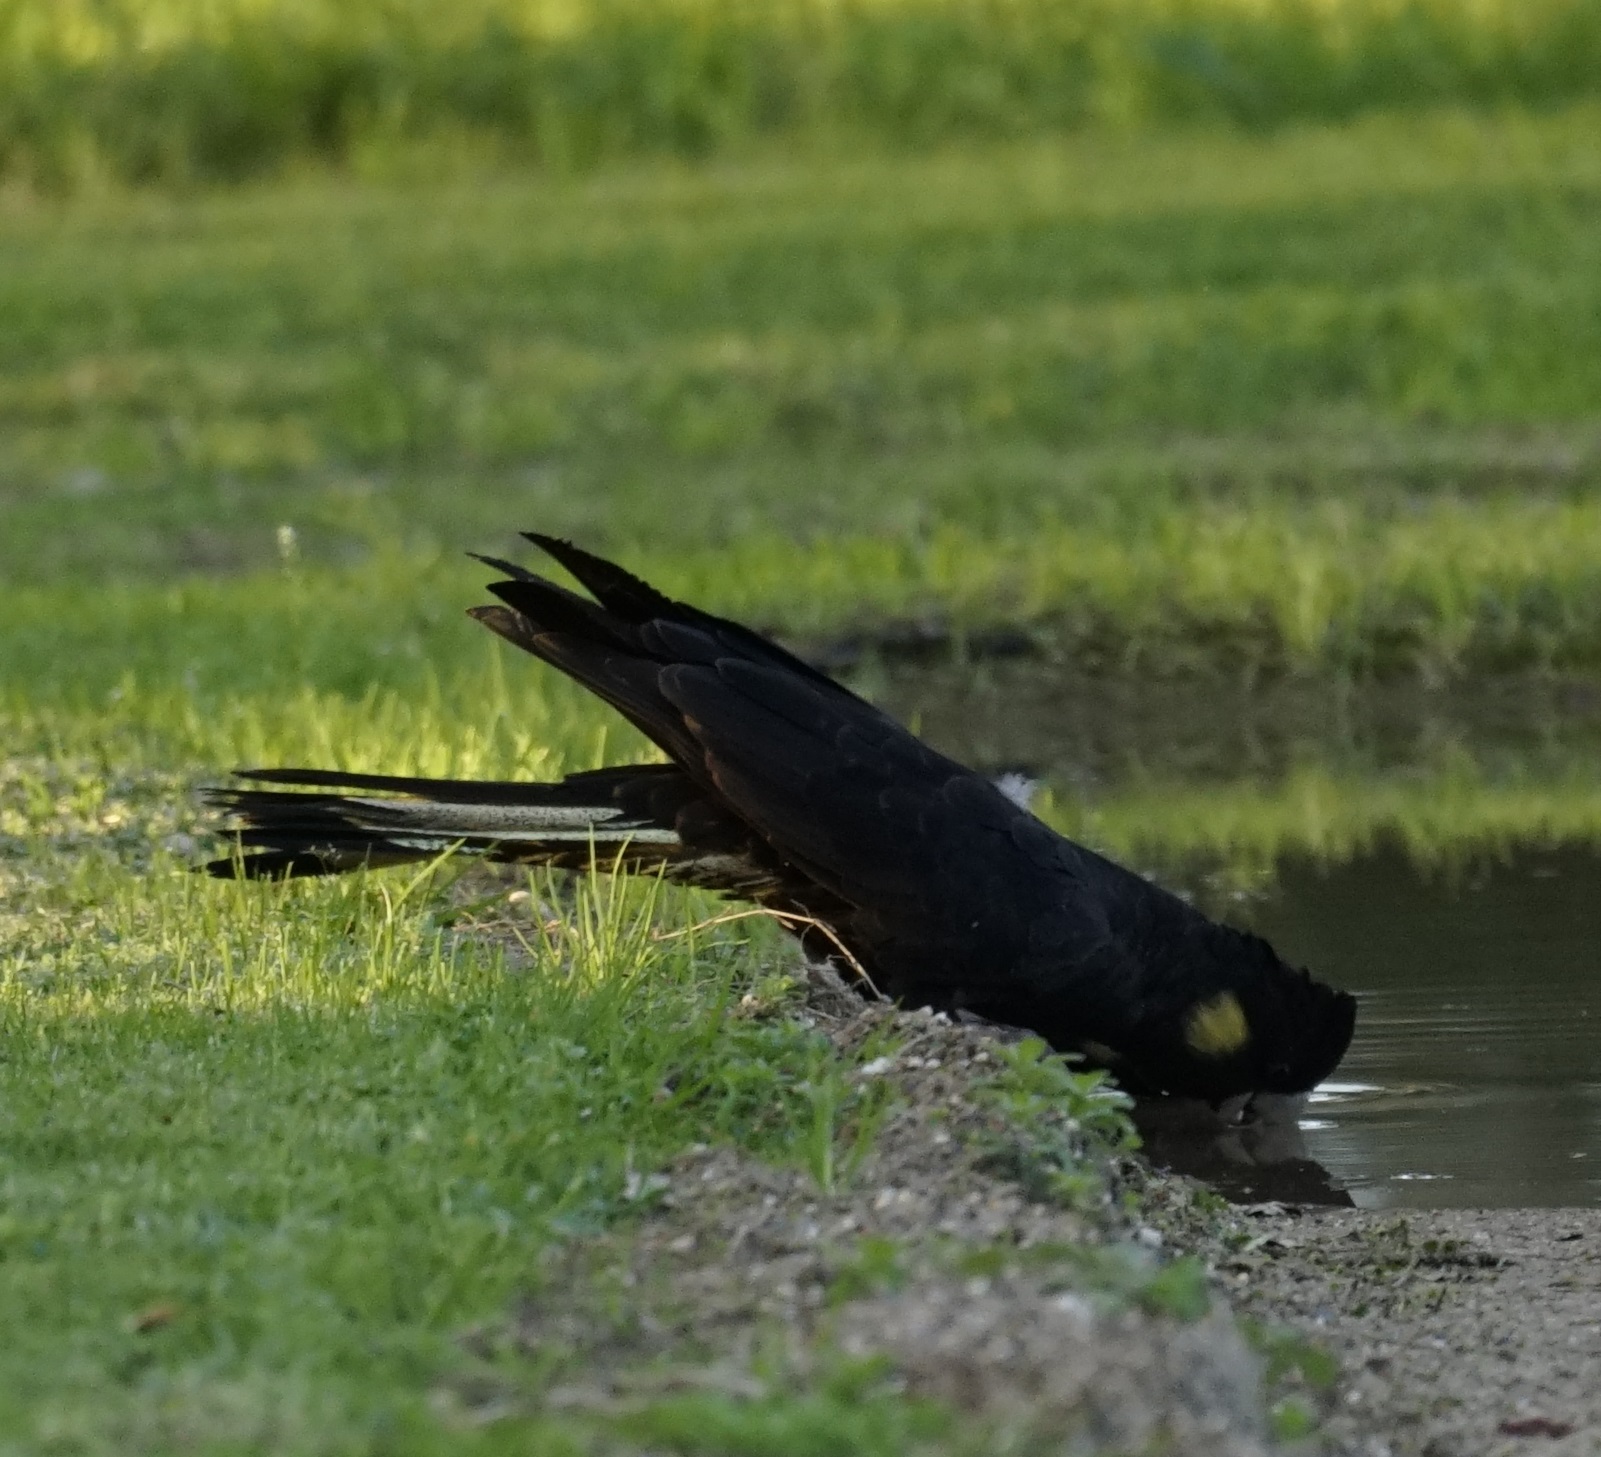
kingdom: Animalia
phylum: Chordata
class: Aves
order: Psittaciformes
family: Cacatuidae
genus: Zanda
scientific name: Zanda funerea
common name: Yellow-tailed black-cockatoo
